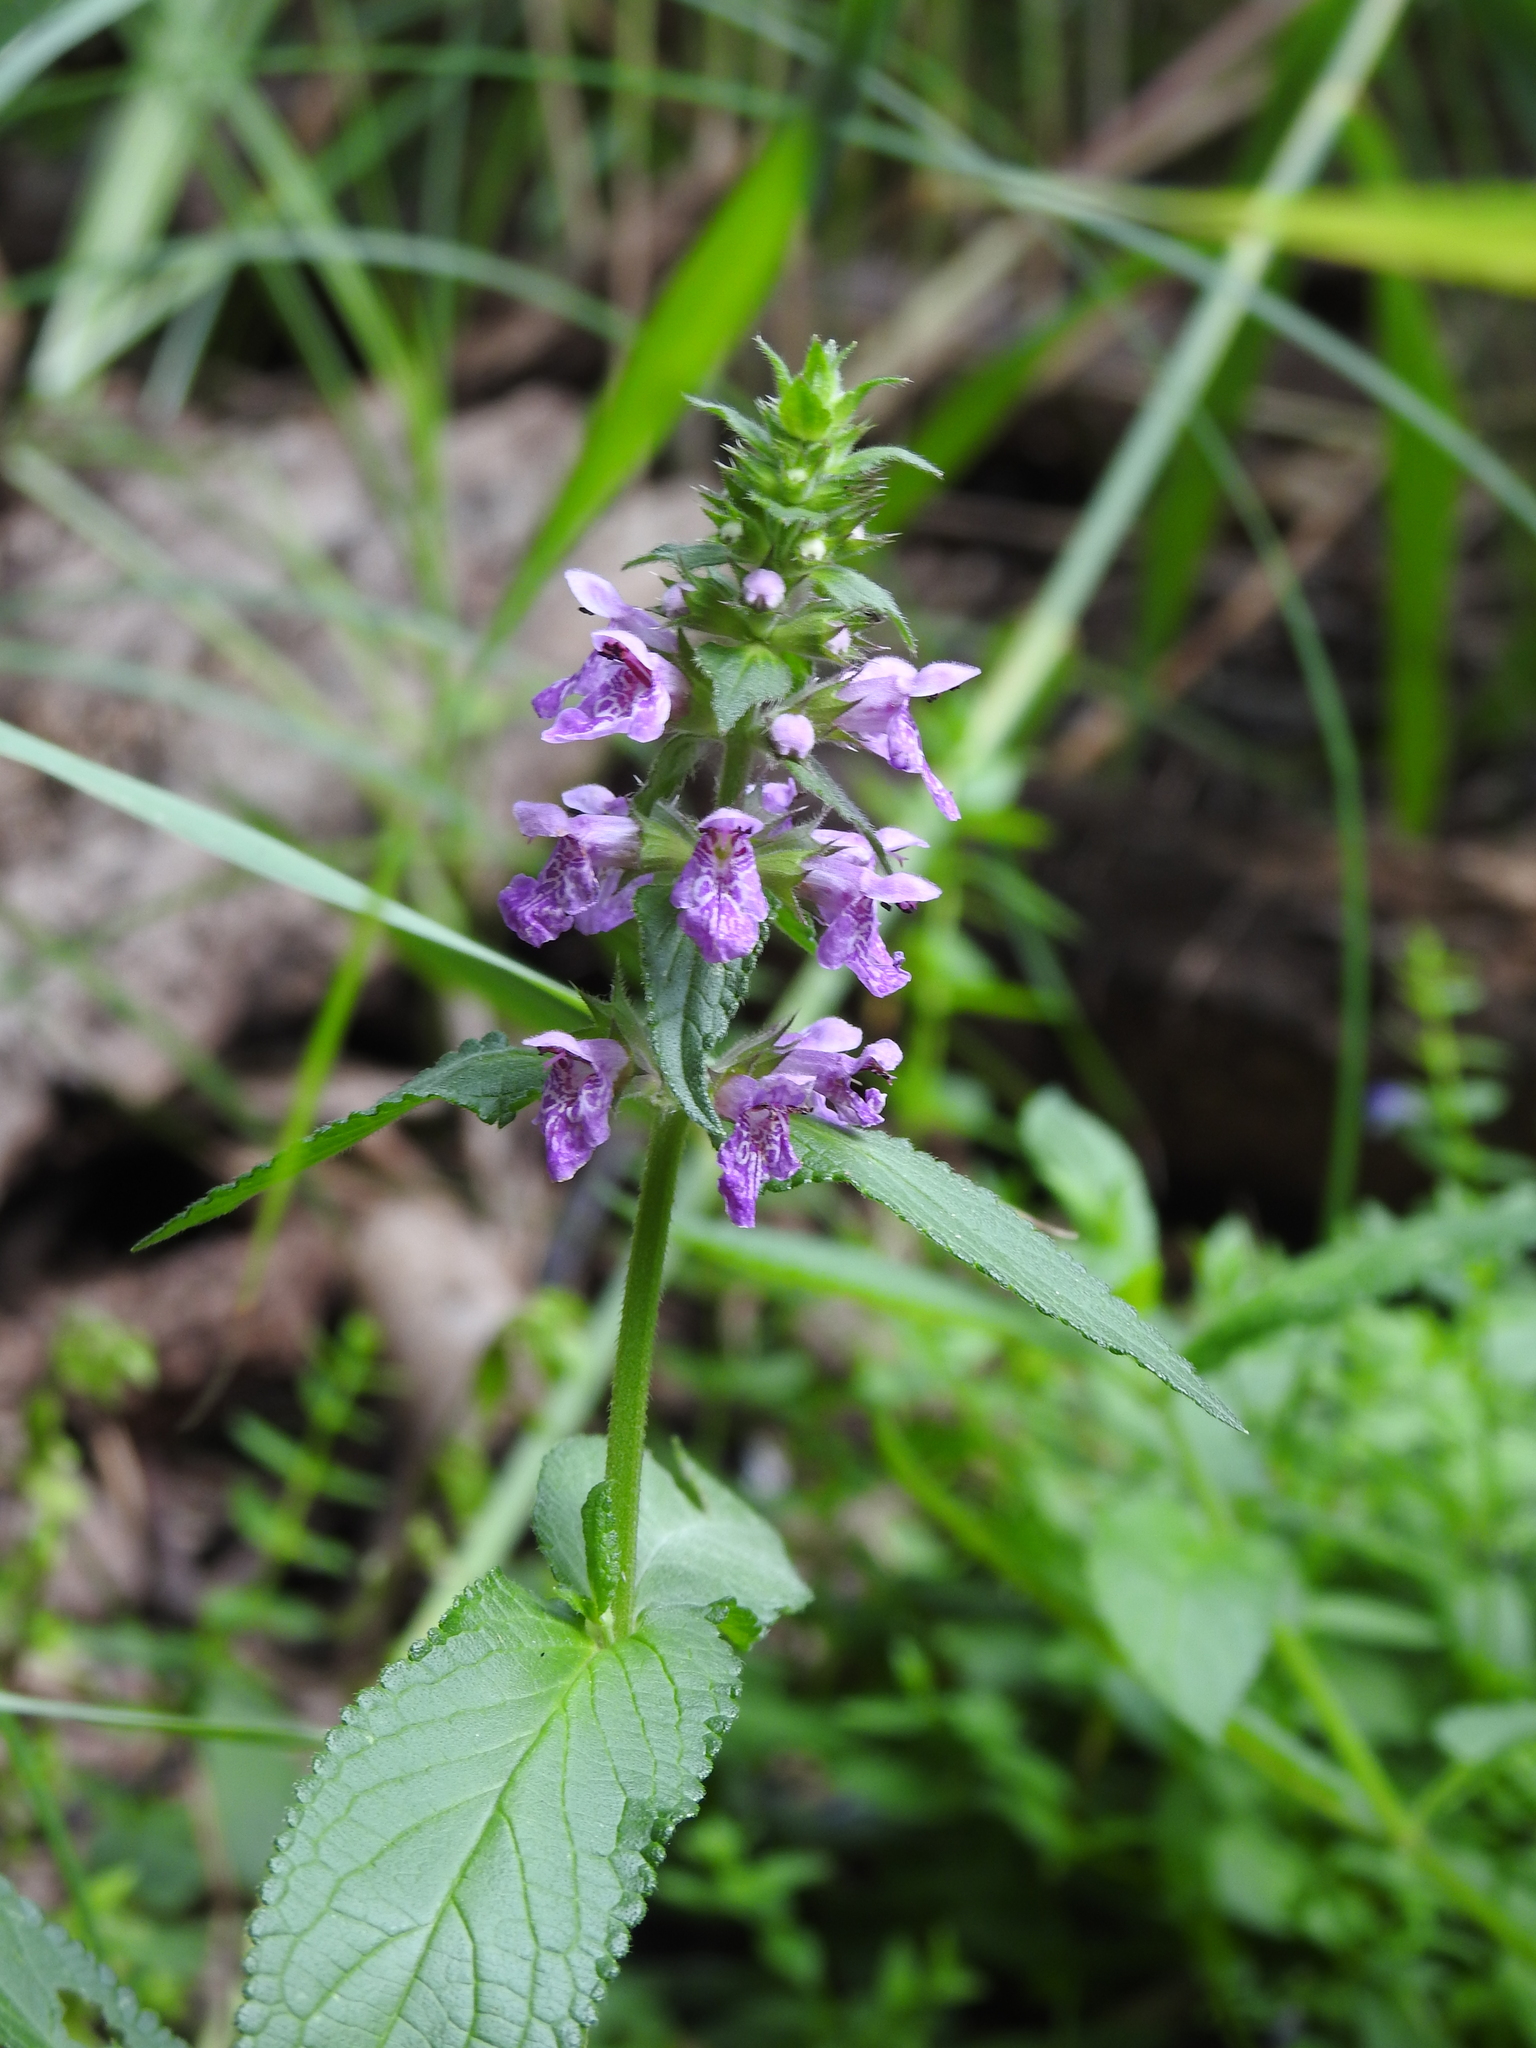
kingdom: Plantae
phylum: Tracheophyta
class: Magnoliopsida
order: Lamiales
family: Lamiaceae
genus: Stachys
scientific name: Stachys palustris
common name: Marsh woundwort
